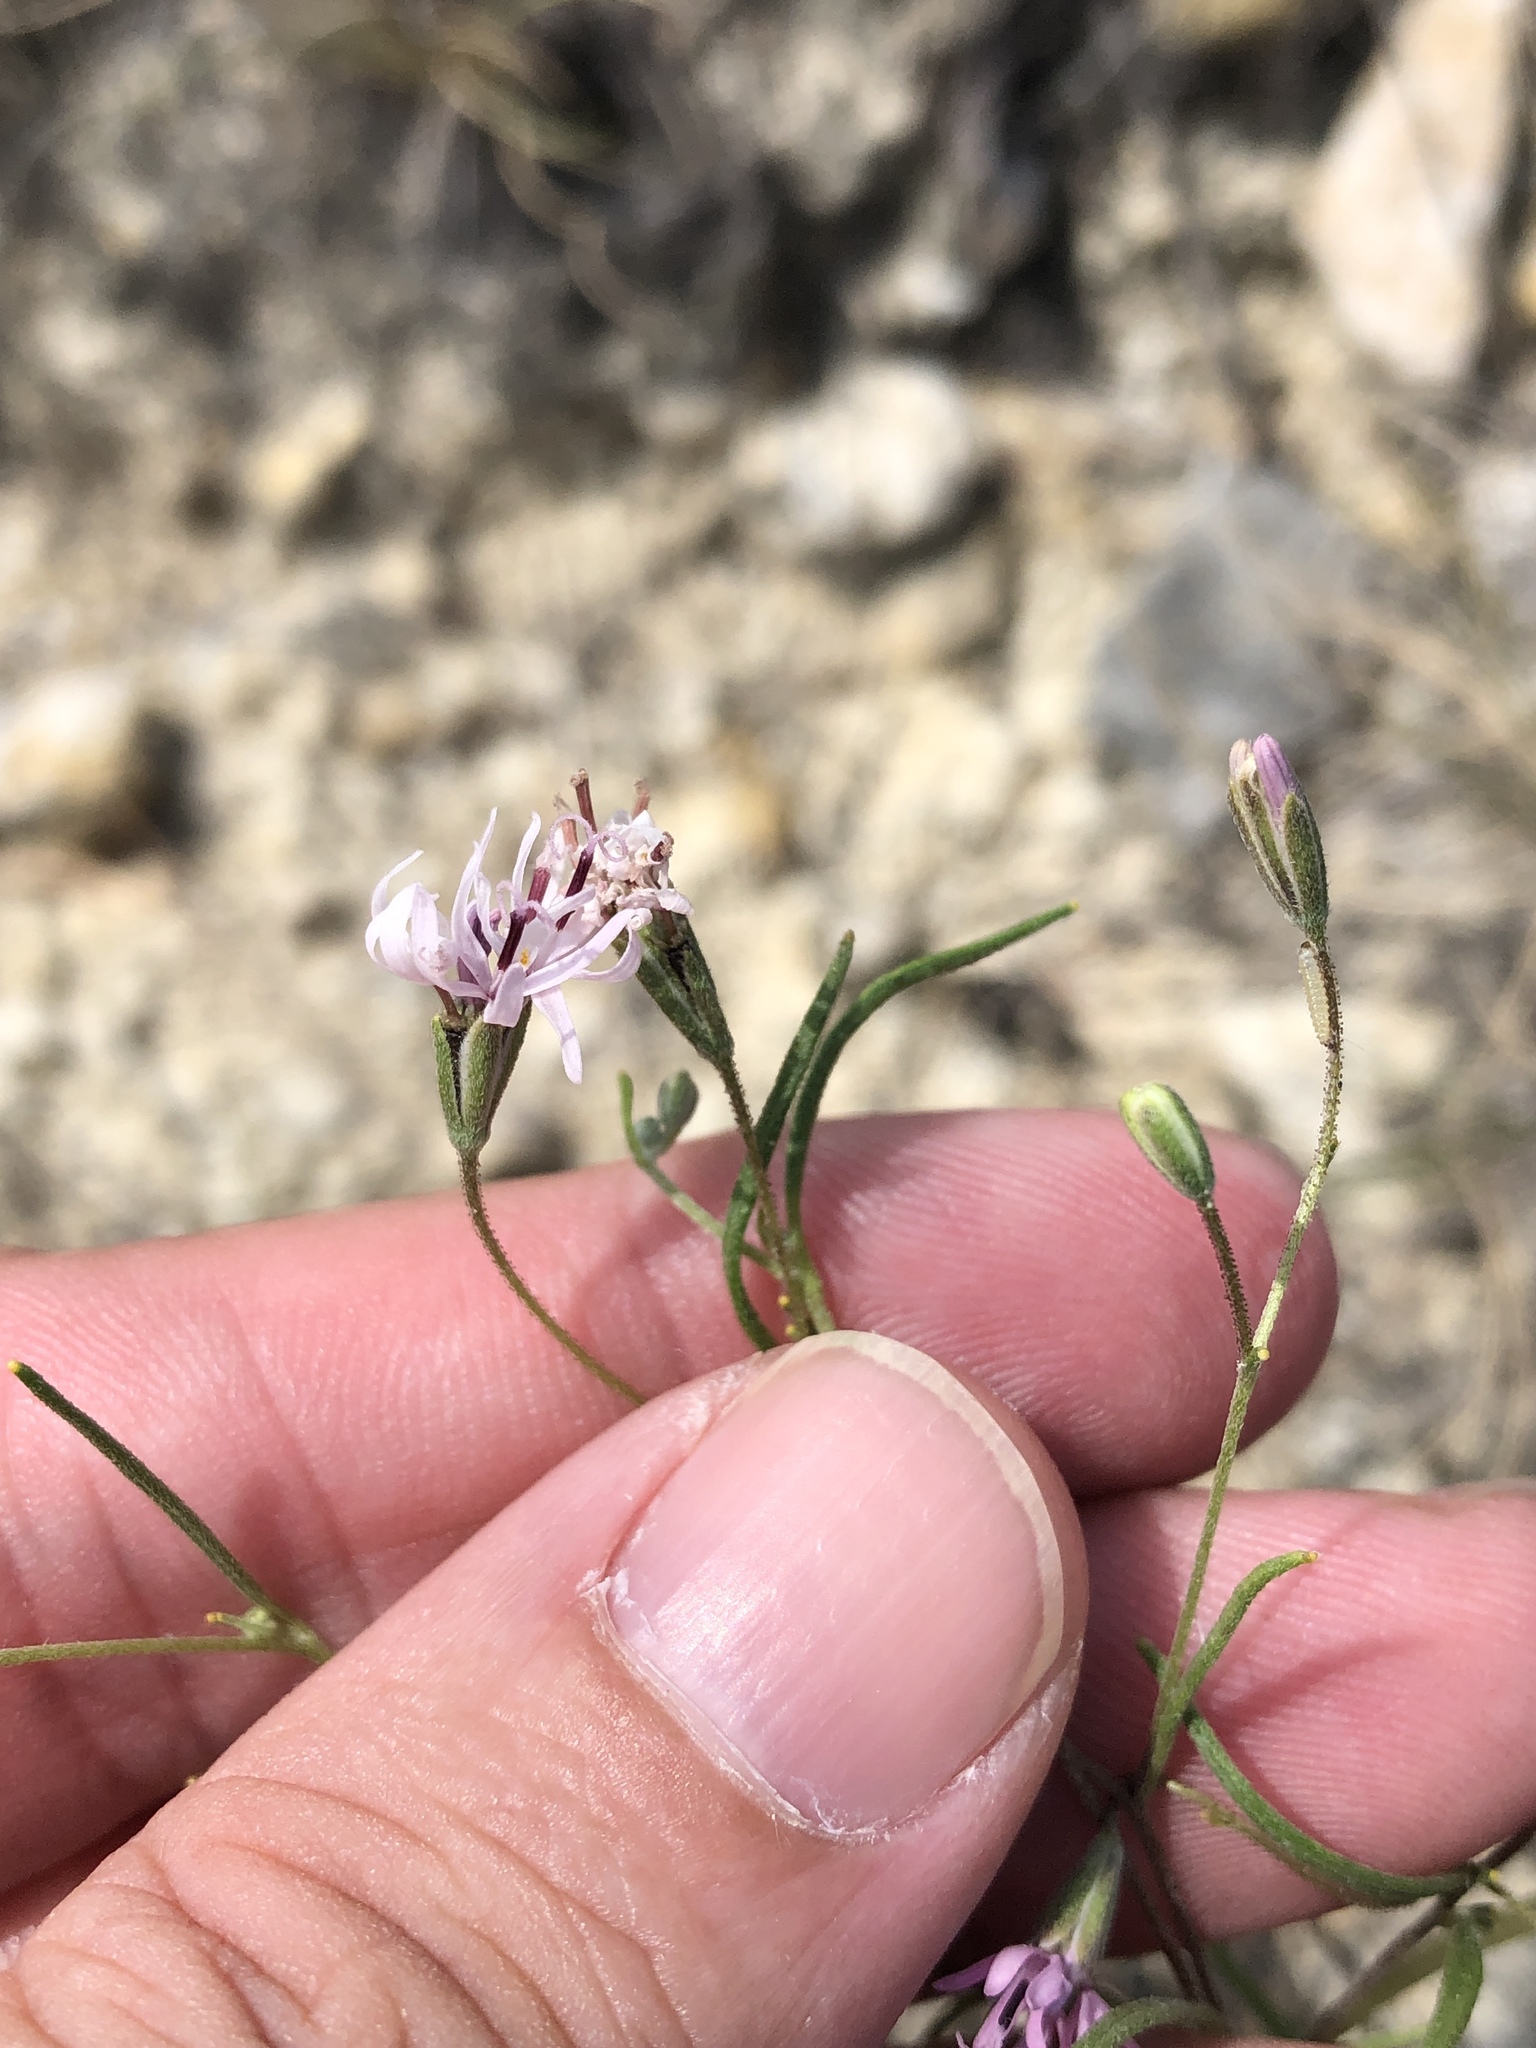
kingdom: Plantae
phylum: Tracheophyta
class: Magnoliopsida
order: Asterales
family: Asteraceae
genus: Palafoxia
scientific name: Palafoxia callosa
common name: Small palafox
